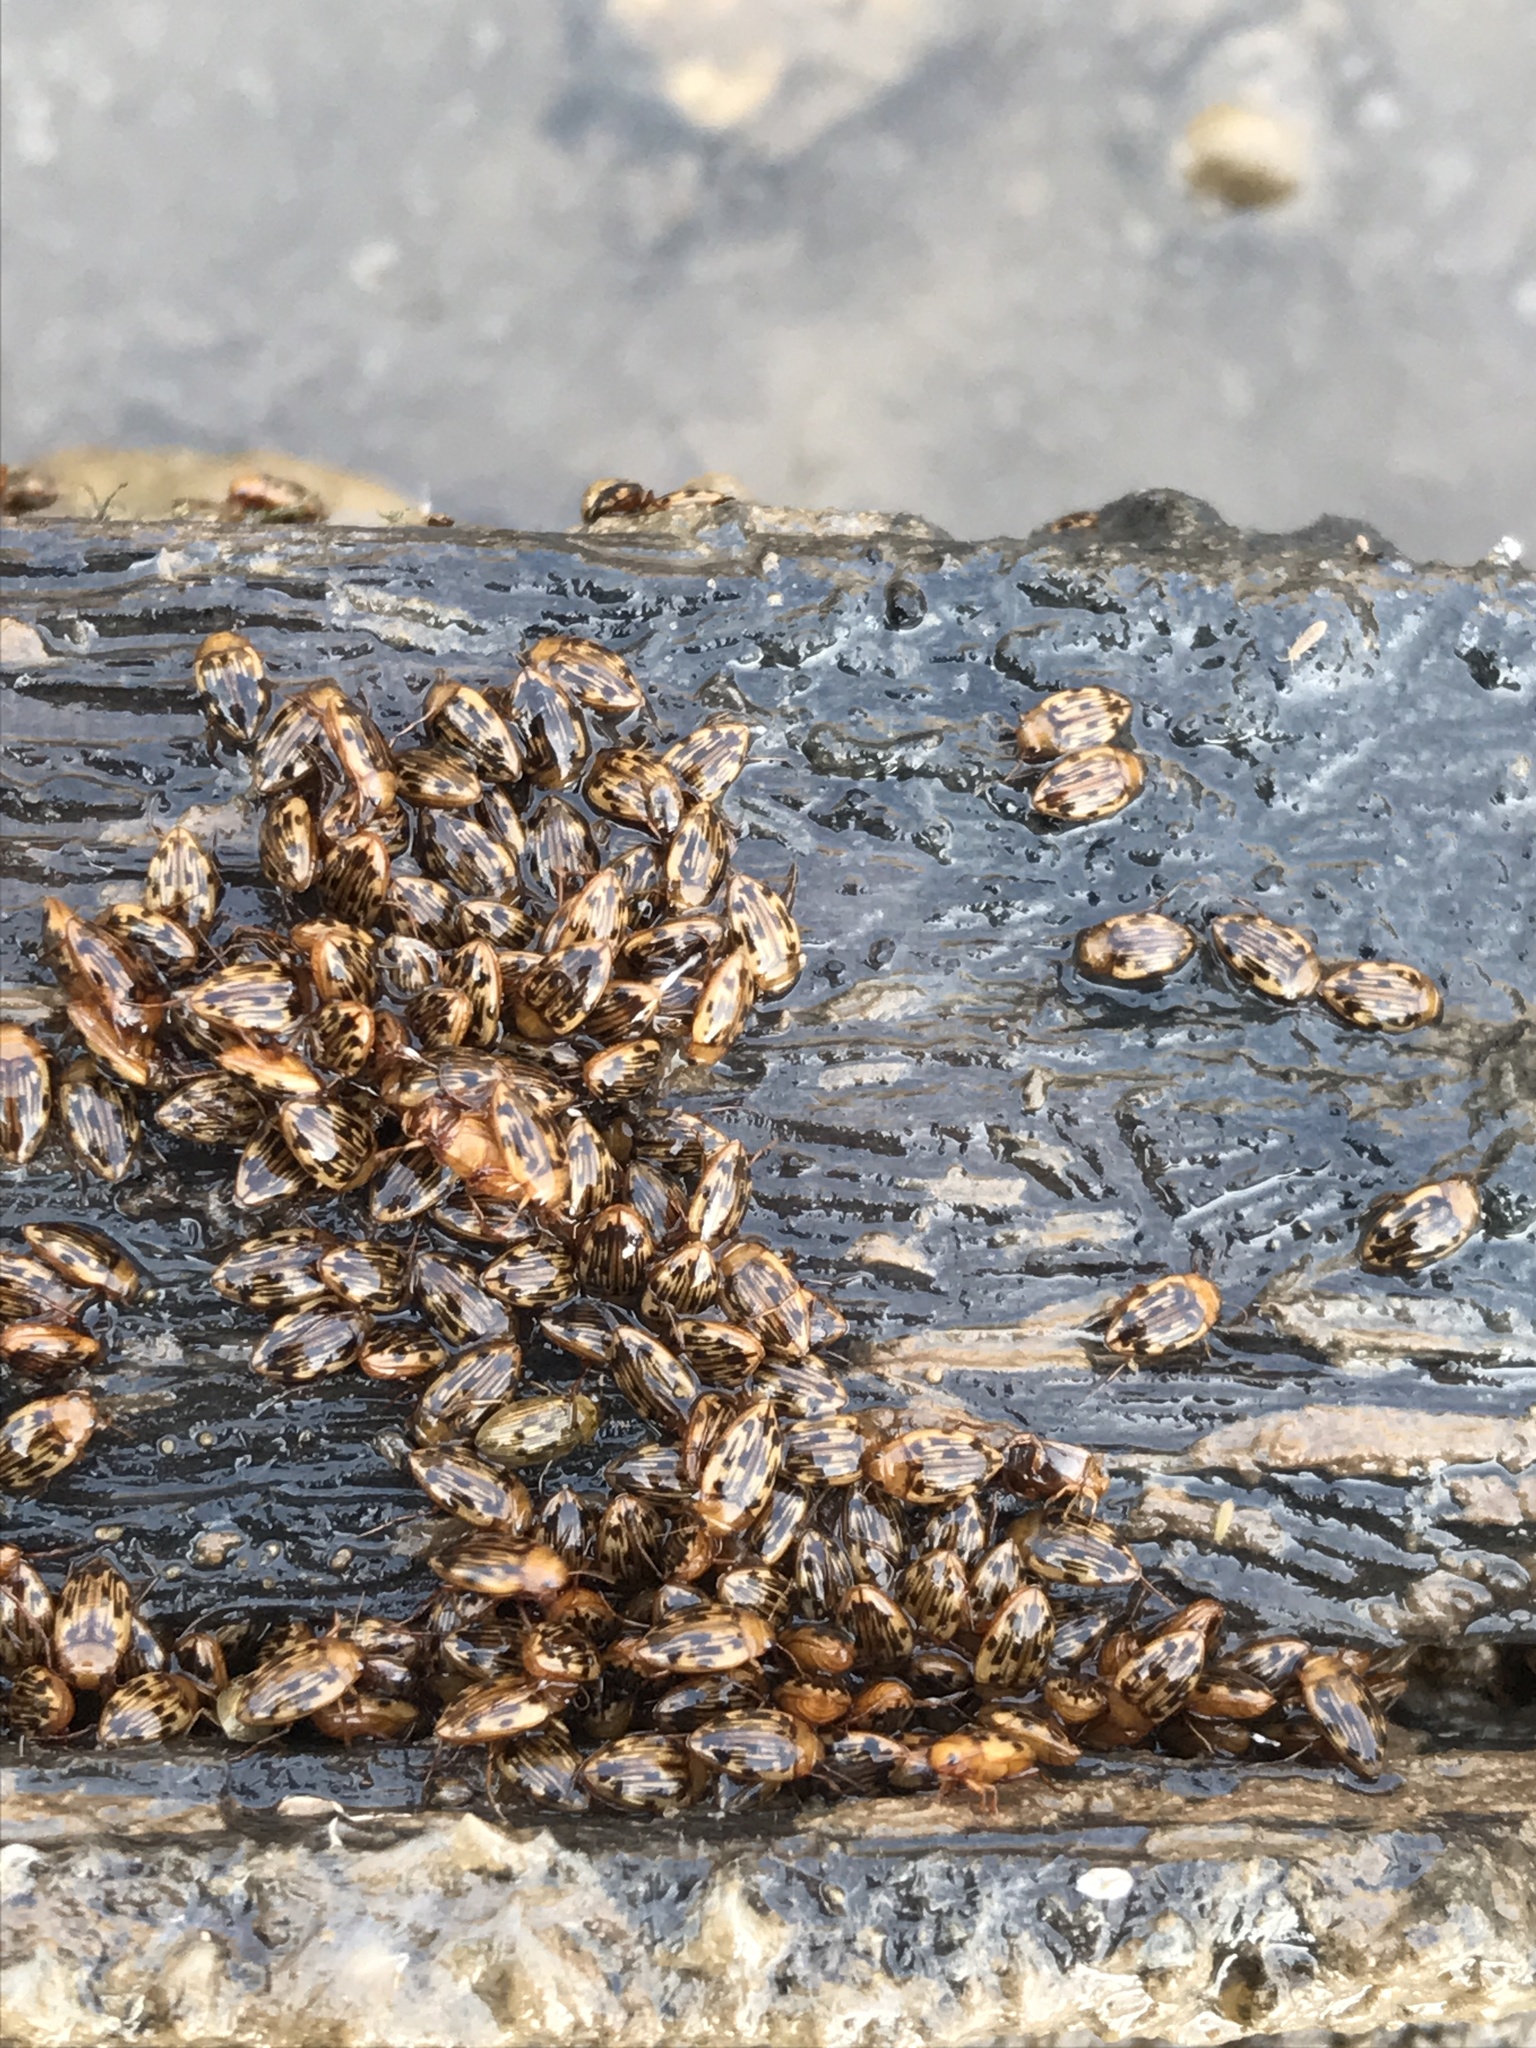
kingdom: Animalia
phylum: Arthropoda
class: Insecta
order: Coleoptera
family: Dytiscidae
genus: Neoporus
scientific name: Neoporus dimidiatus
